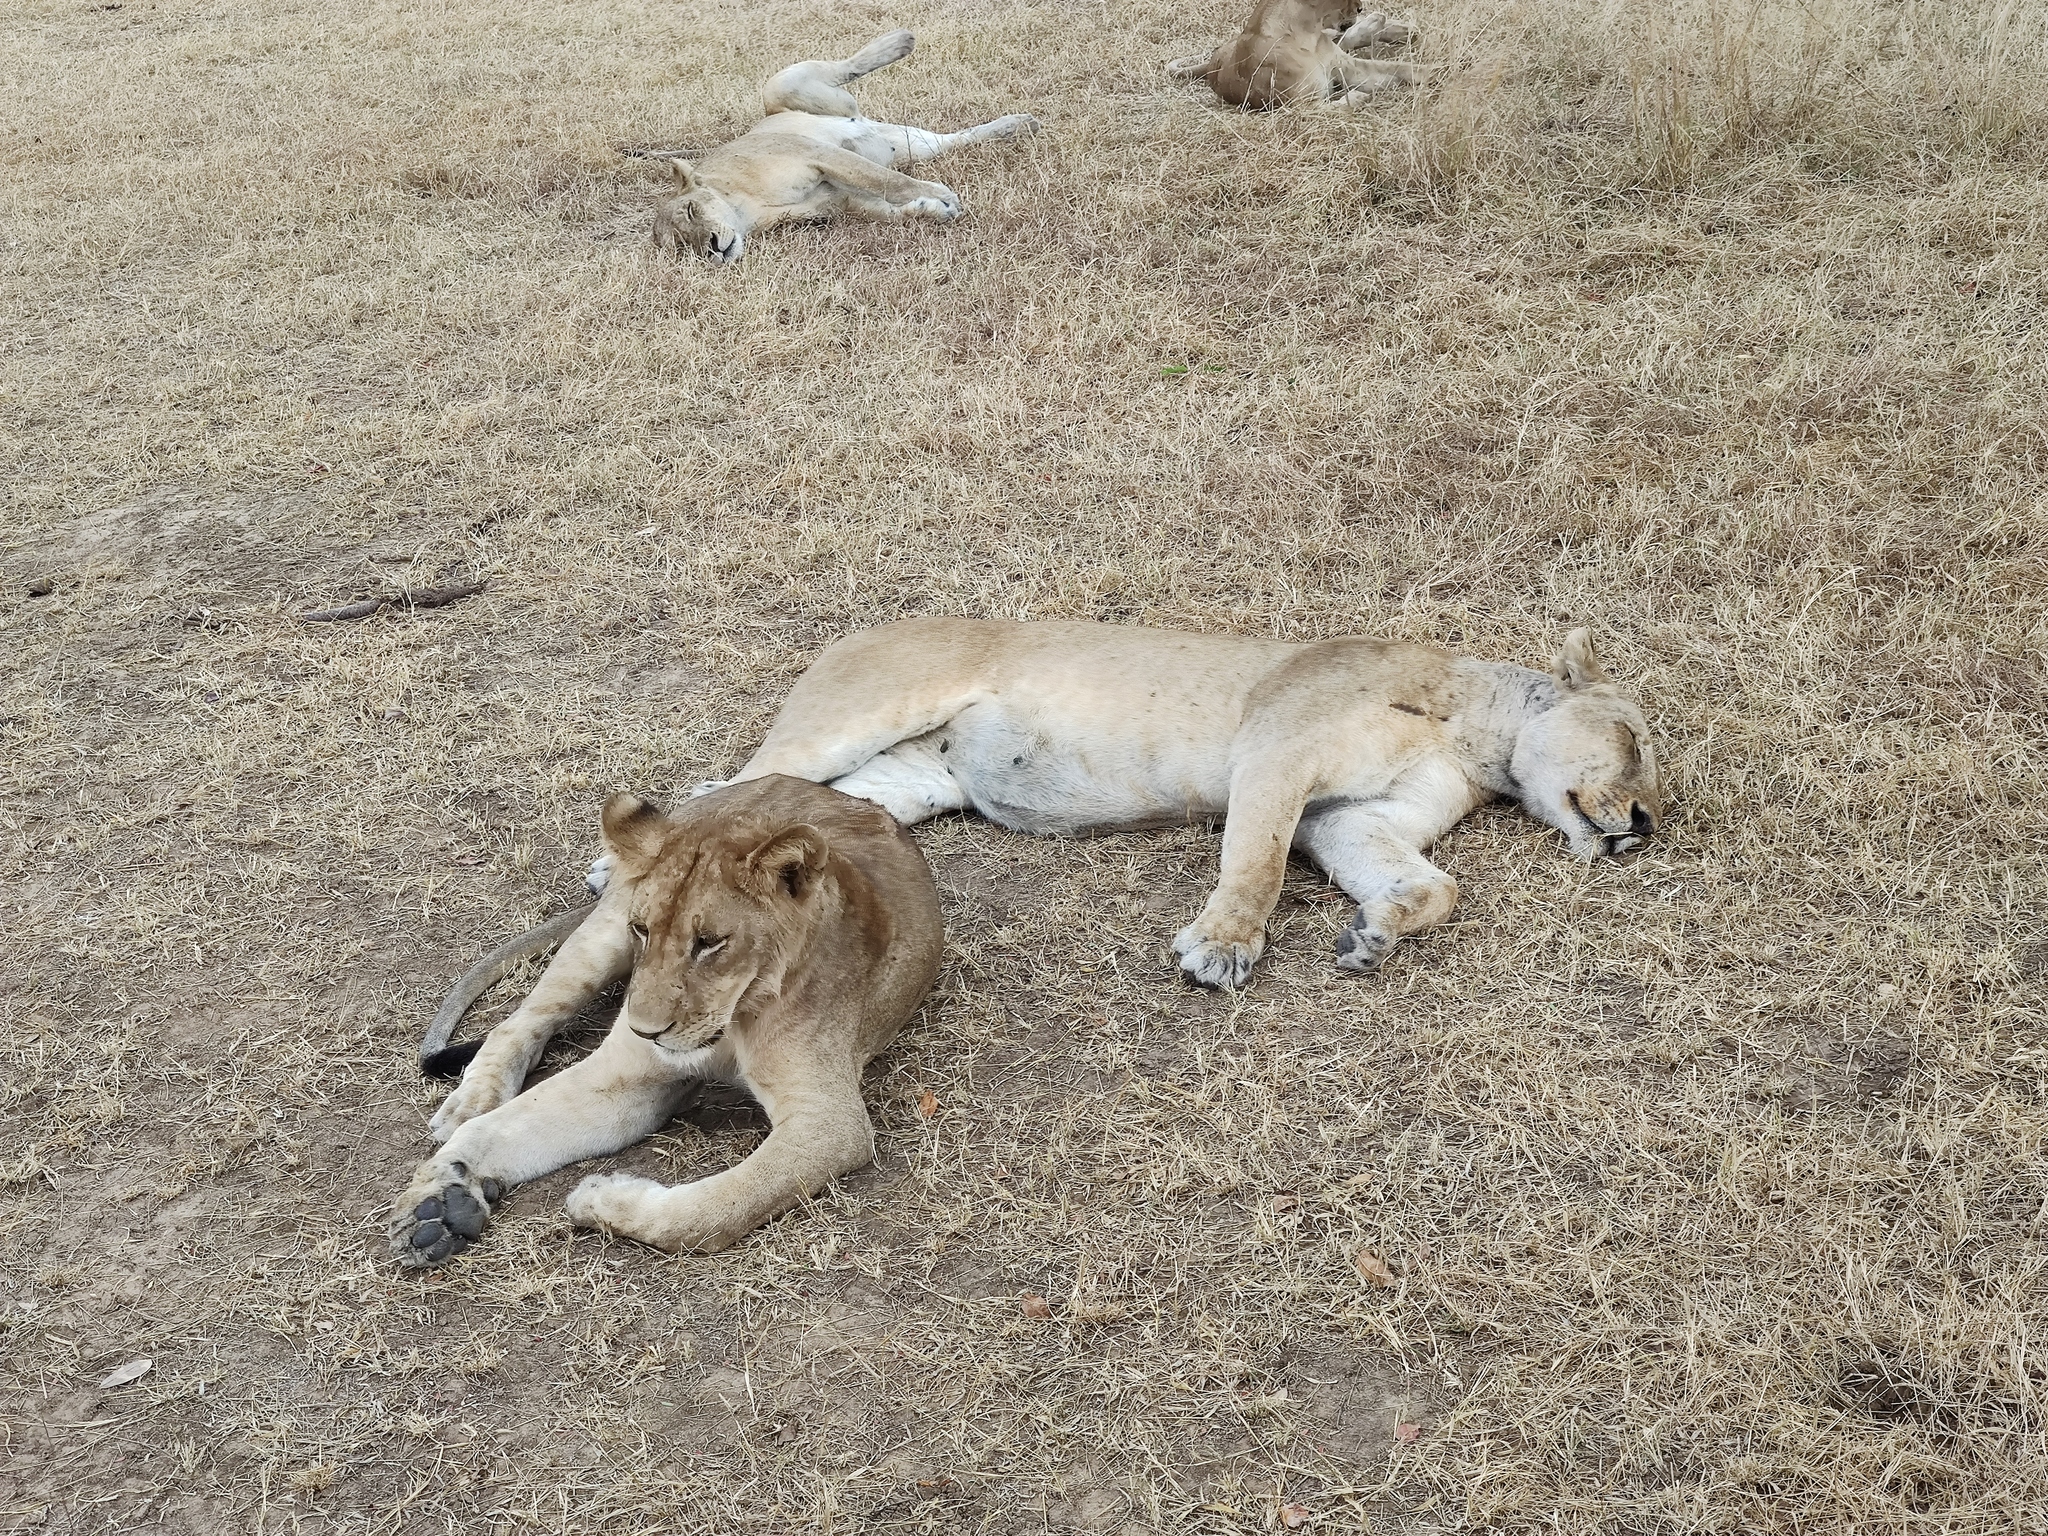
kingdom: Animalia
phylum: Chordata
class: Mammalia
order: Carnivora
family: Felidae
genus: Panthera
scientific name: Panthera leo
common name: Lion
